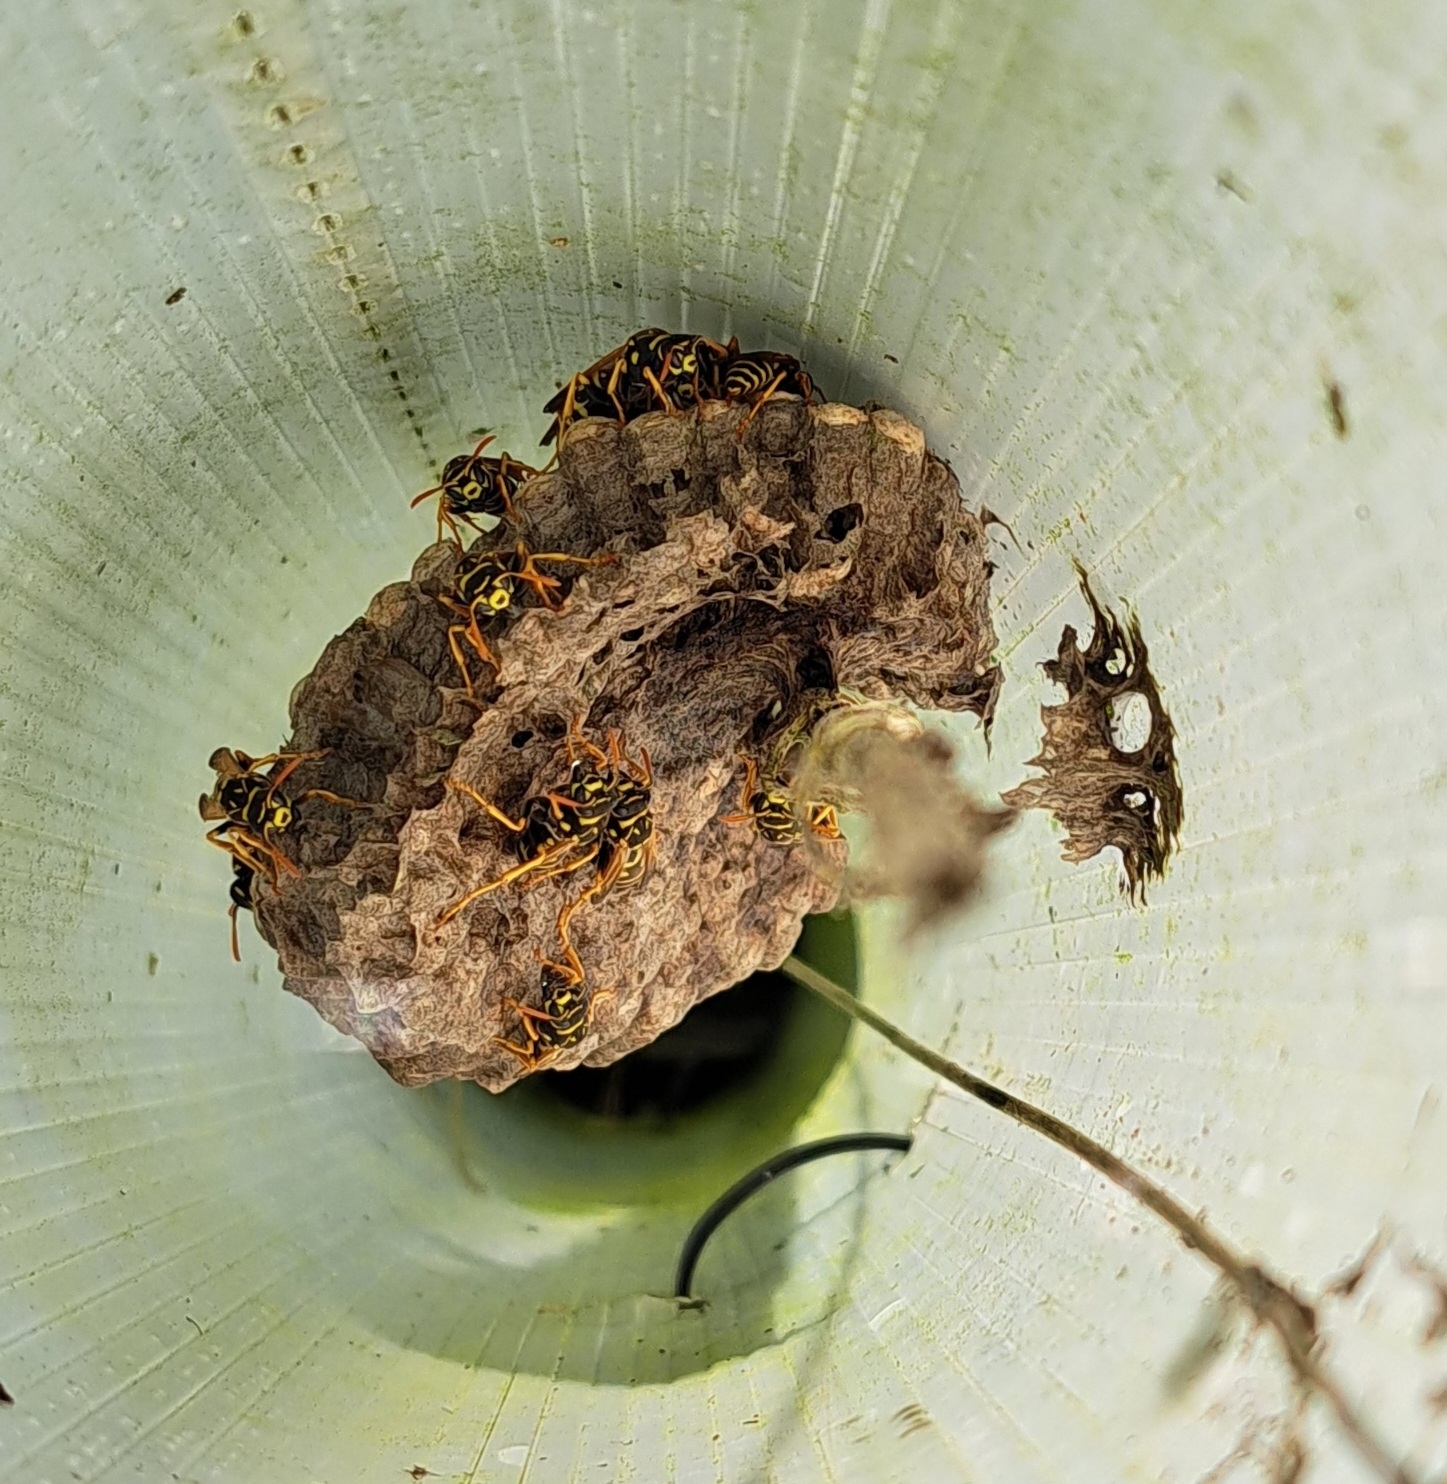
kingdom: Animalia
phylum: Arthropoda
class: Insecta
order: Hymenoptera
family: Eumenidae
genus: Polistes
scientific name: Polistes dominula
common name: Paper wasp
